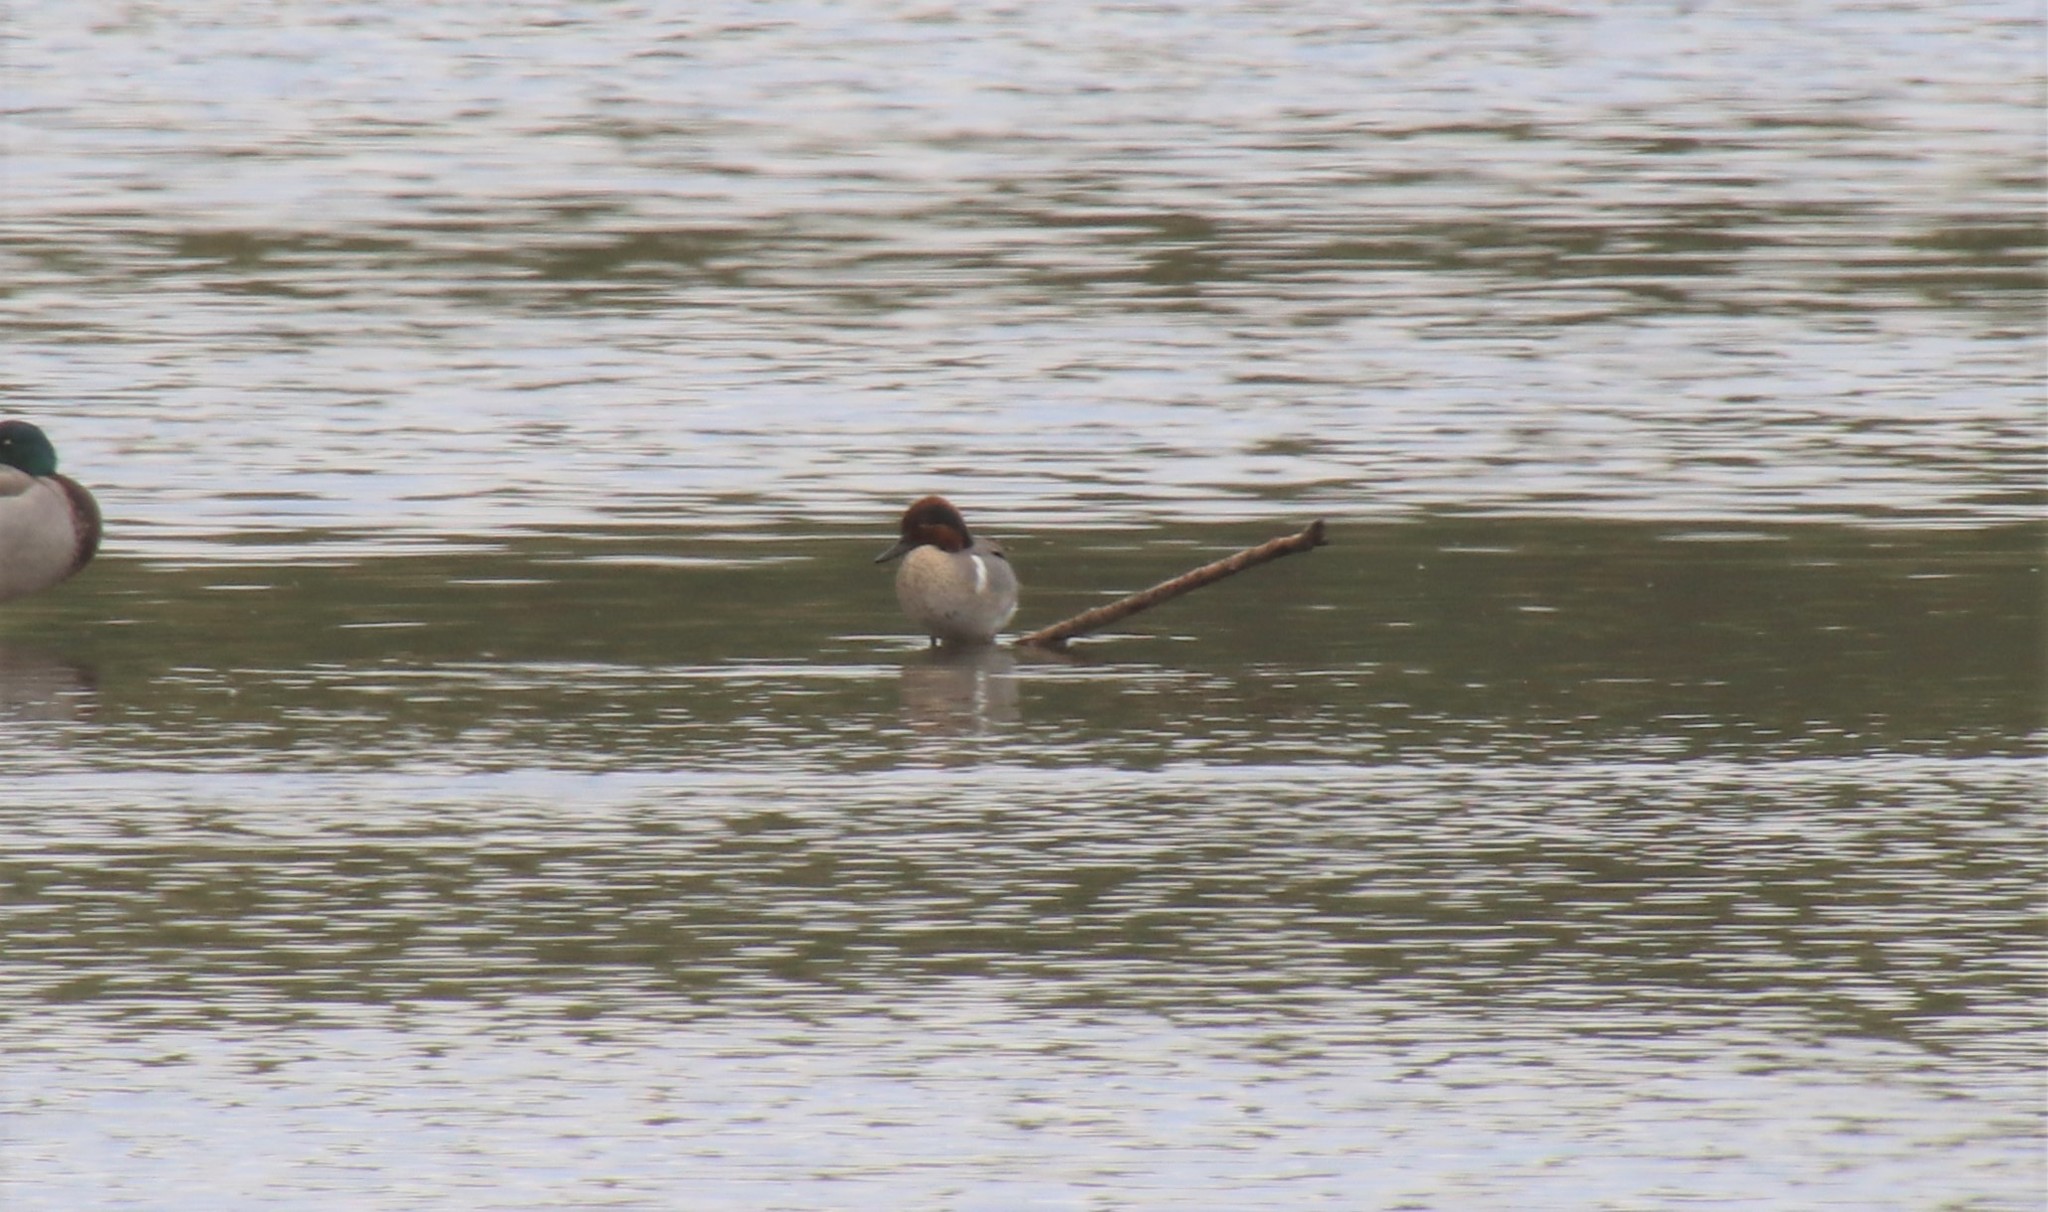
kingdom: Animalia
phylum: Chordata
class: Aves
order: Anseriformes
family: Anatidae
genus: Anas
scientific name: Anas crecca
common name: Eurasian teal
